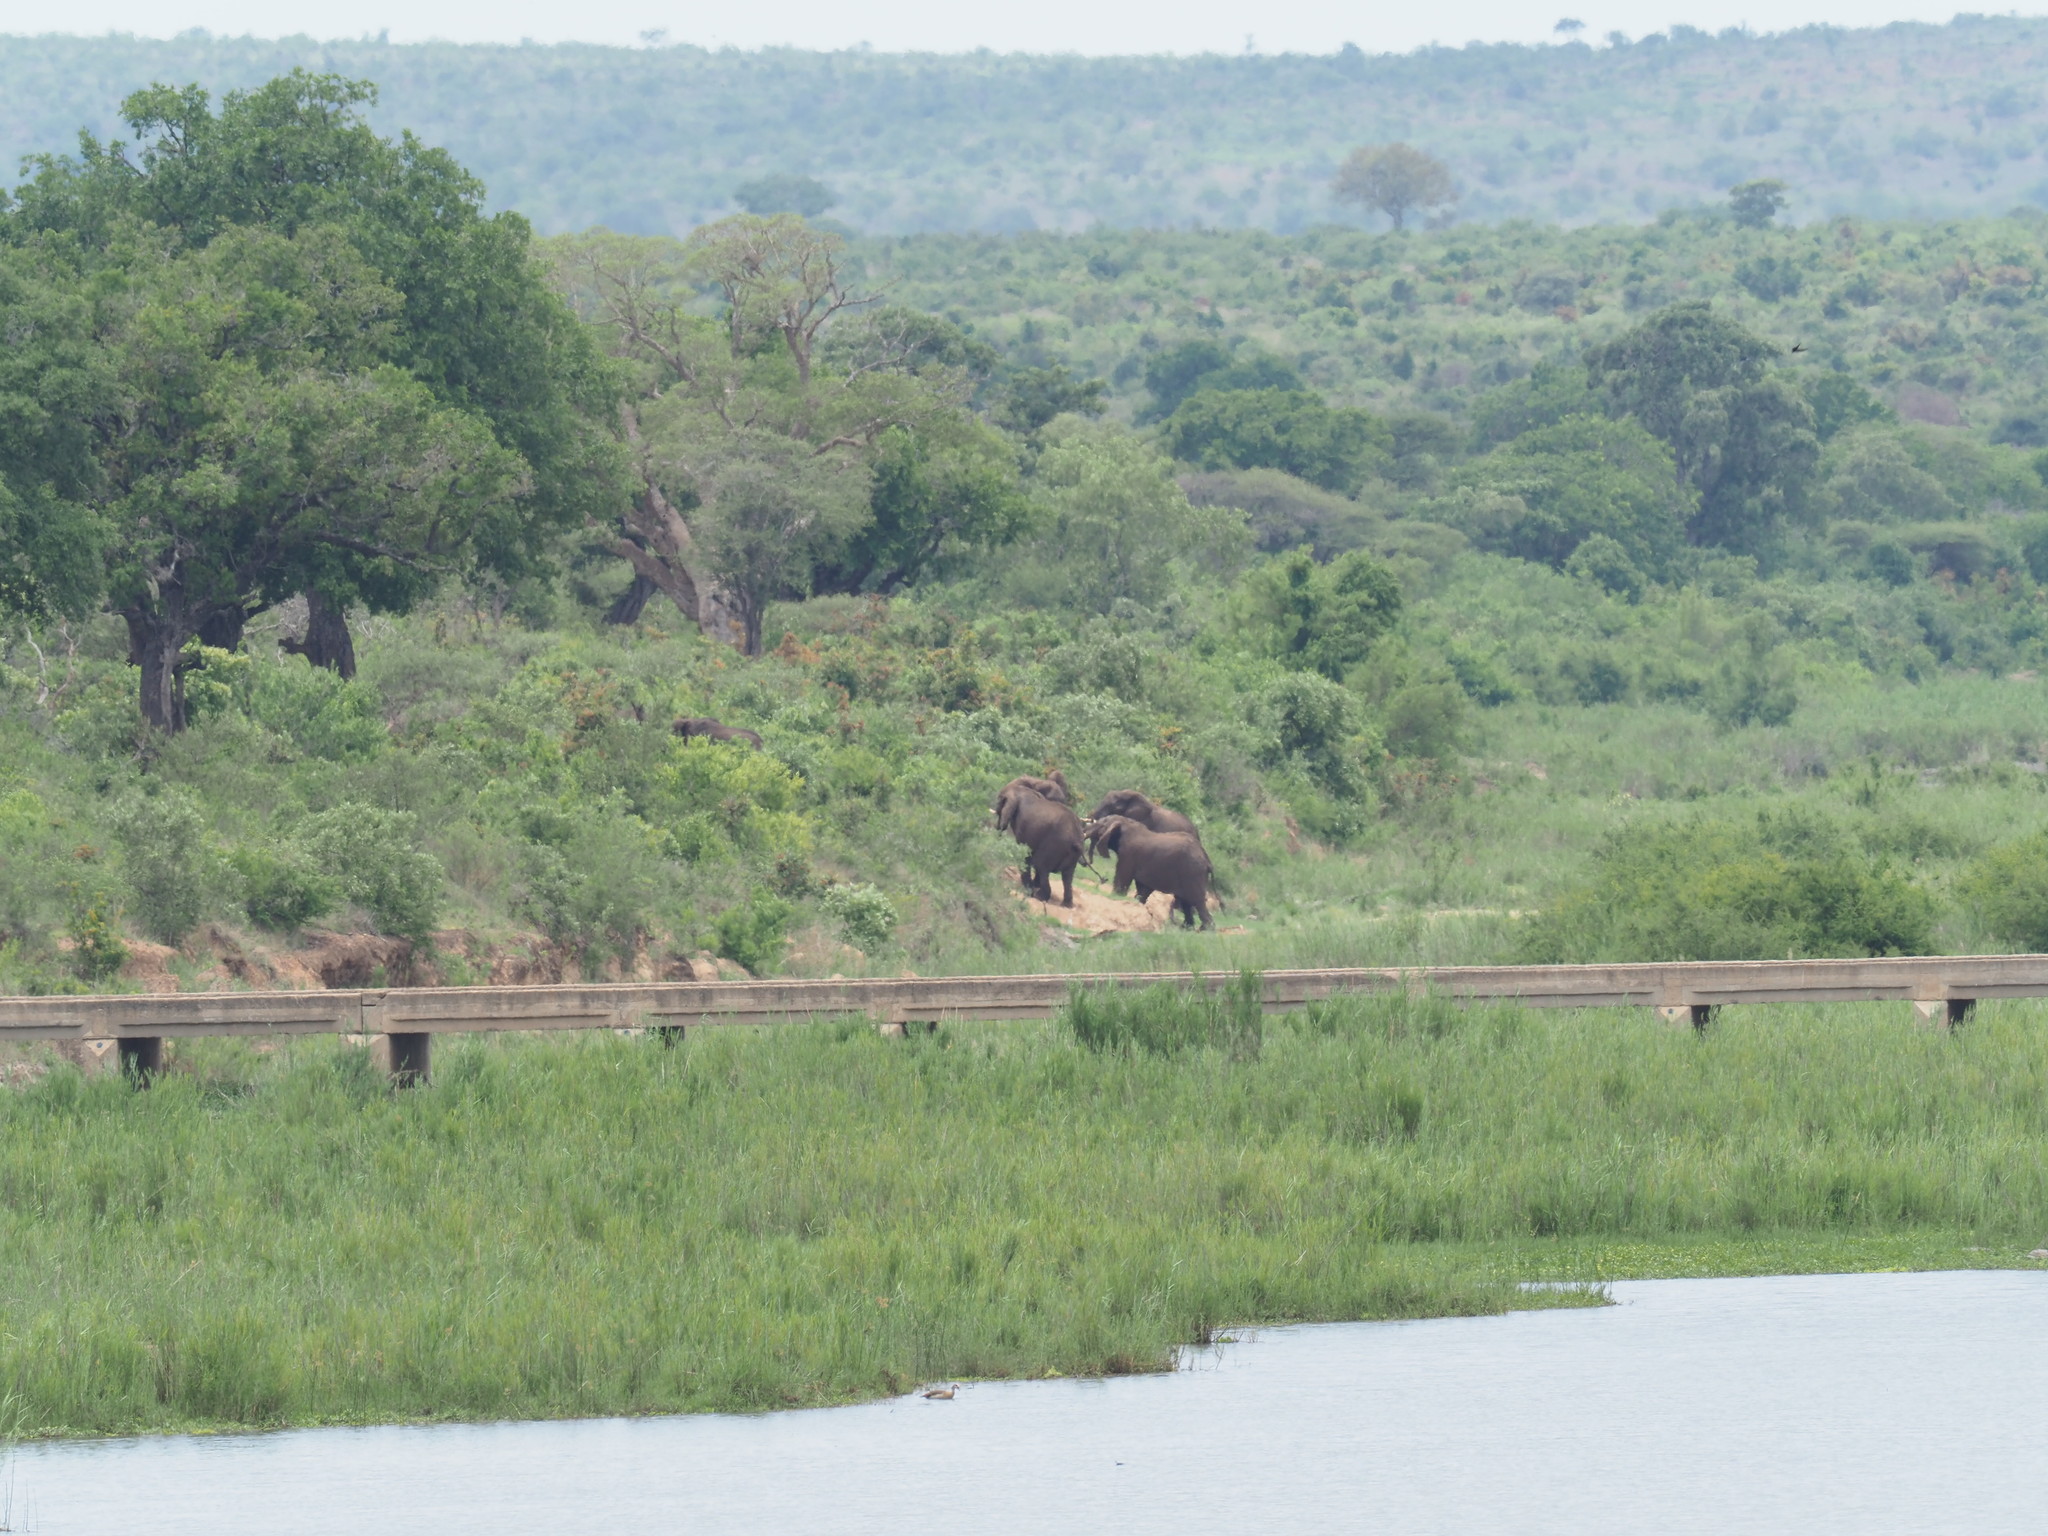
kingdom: Animalia
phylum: Chordata
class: Mammalia
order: Proboscidea
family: Elephantidae
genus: Loxodonta
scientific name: Loxodonta africana
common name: African elephant
